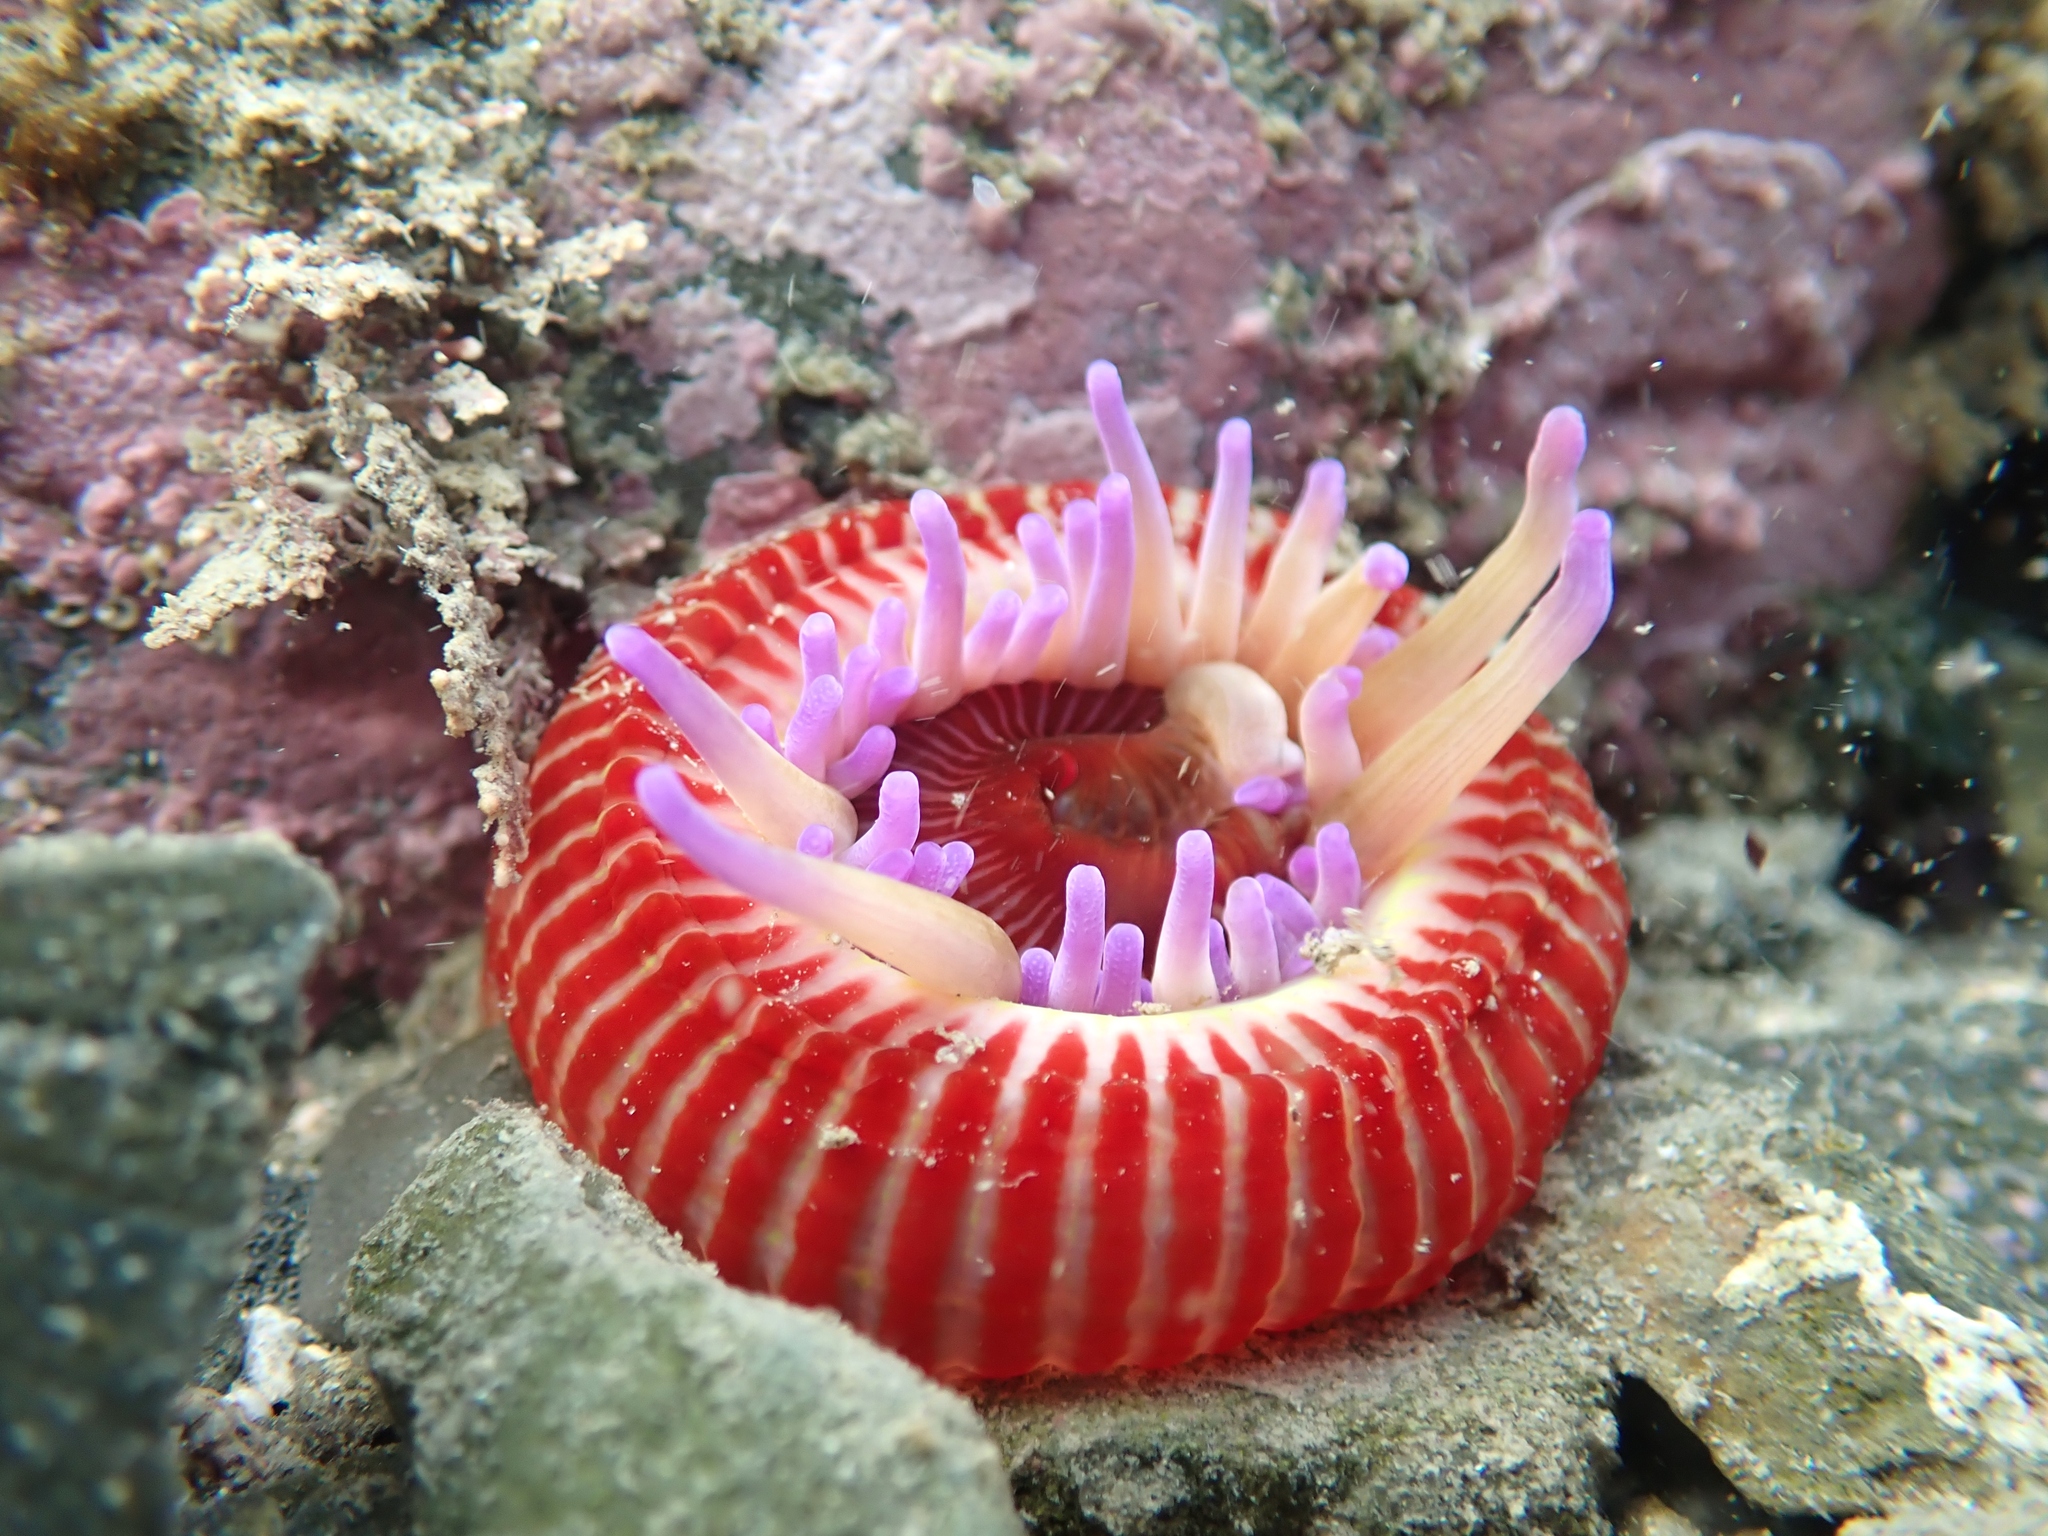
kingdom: Animalia
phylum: Cnidaria
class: Anthozoa
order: Actiniaria
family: Actiniidae
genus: Epiactis
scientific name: Epiactis thompsoni
